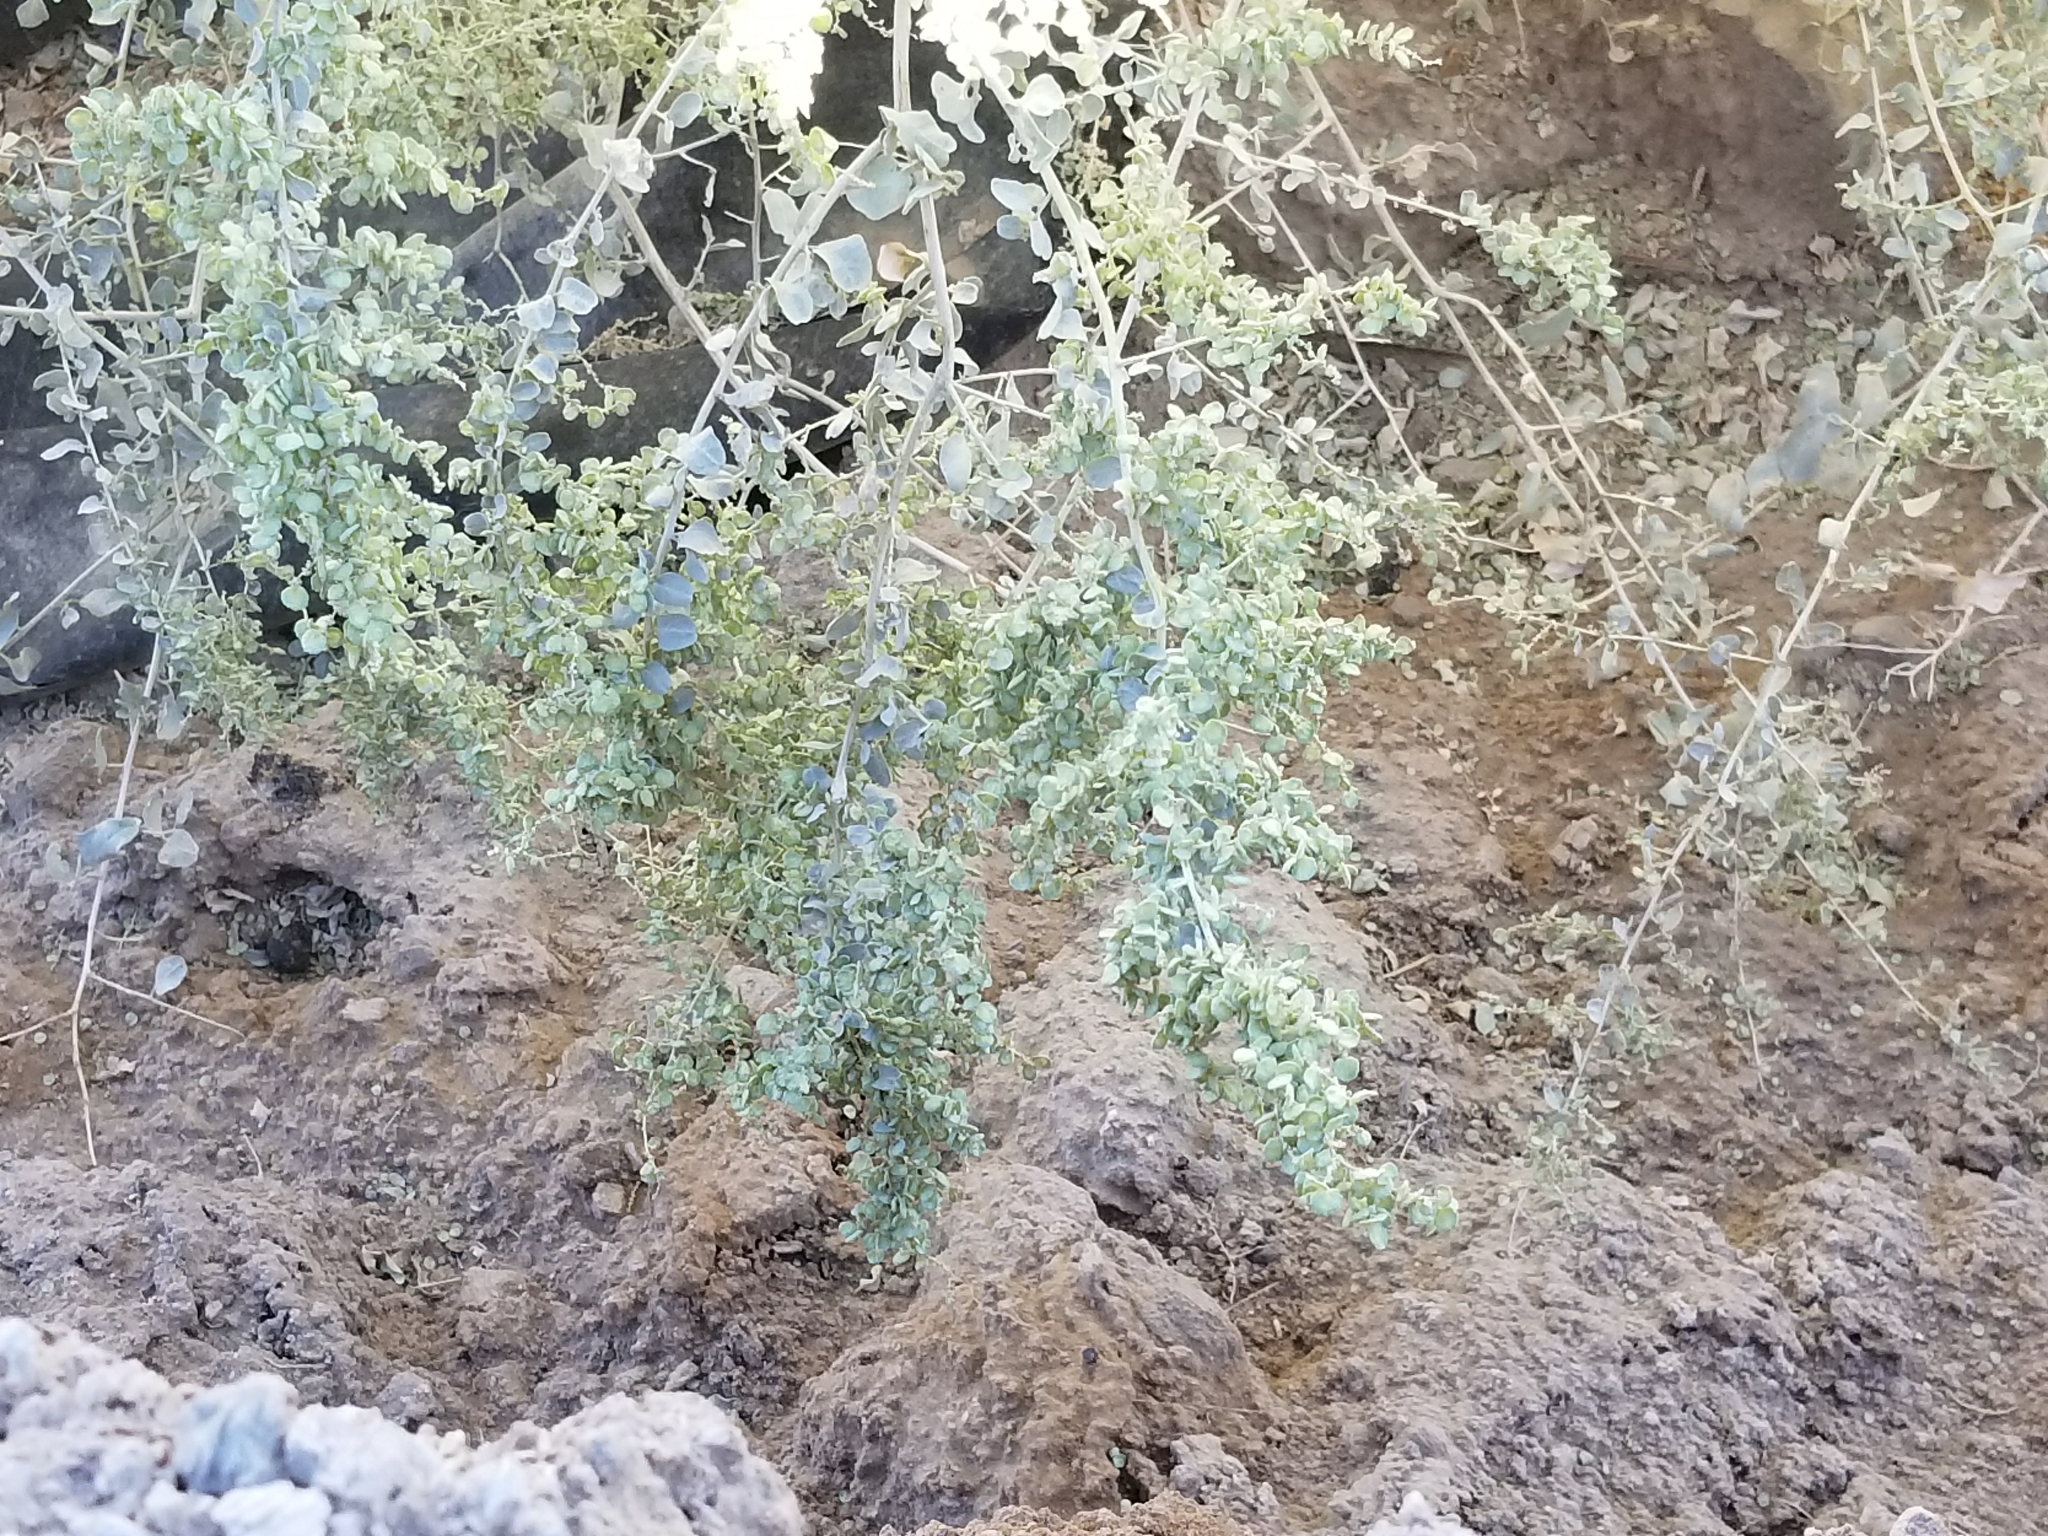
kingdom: Plantae
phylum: Tracheophyta
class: Magnoliopsida
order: Caryophyllales
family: Amaranthaceae
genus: Atriplex
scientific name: Atriplex lentiformis
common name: Big saltbush
